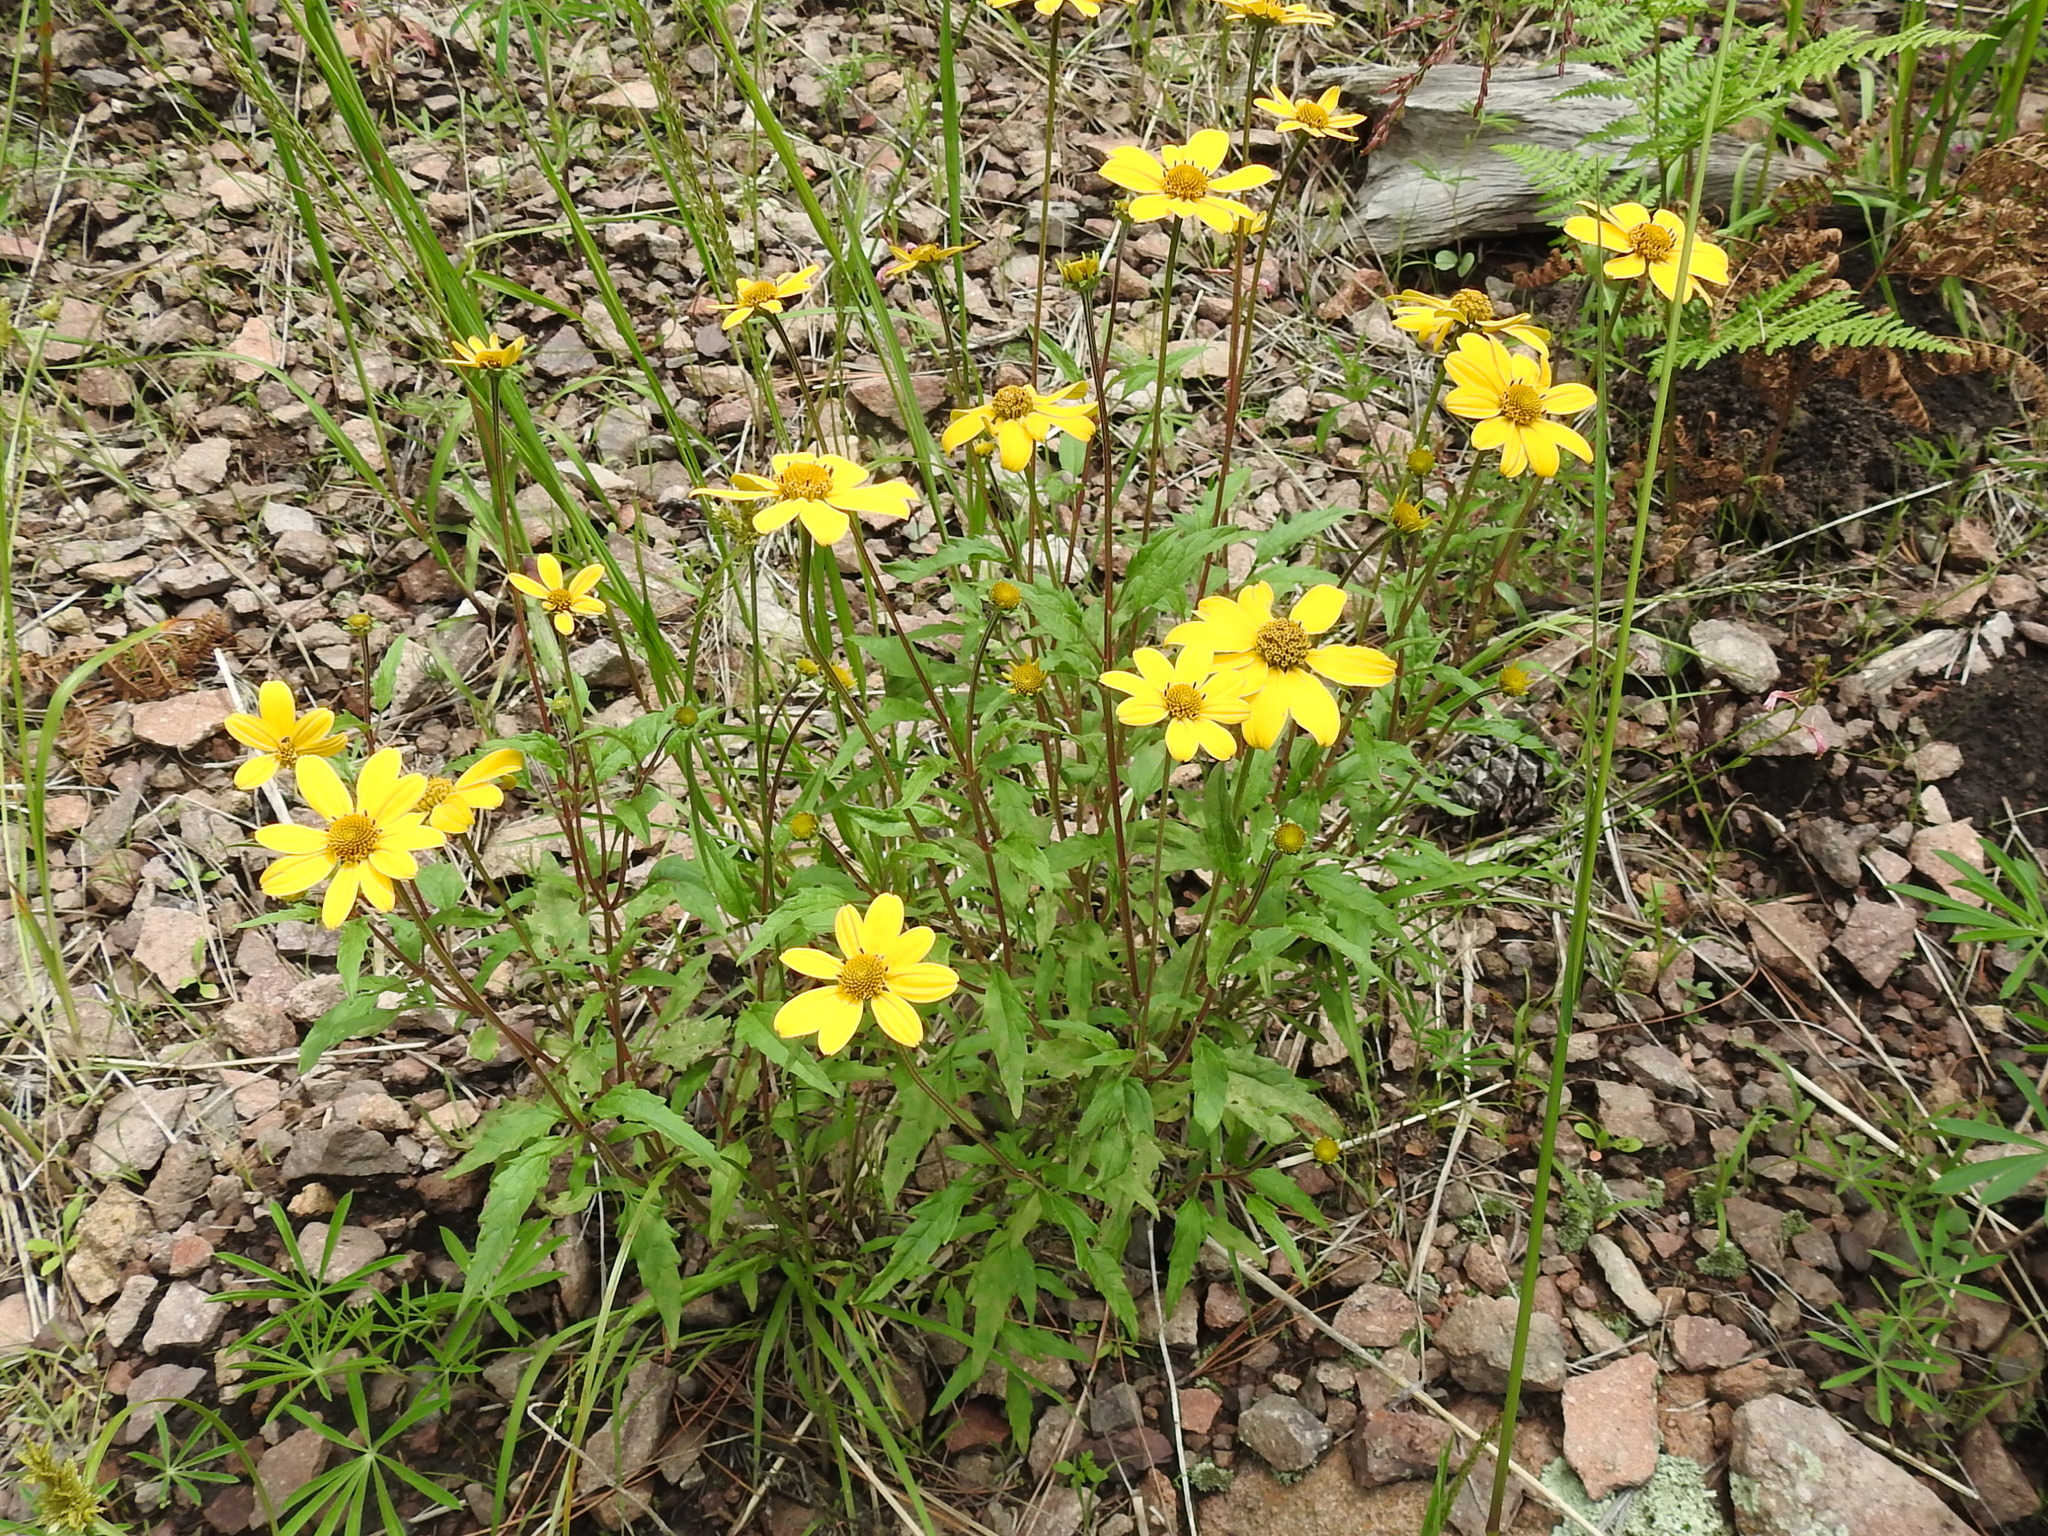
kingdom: Plantae
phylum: Tracheophyta
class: Magnoliopsida
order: Asterales
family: Asteraceae
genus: Heliopsis
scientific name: Heliopsis parvifolia
